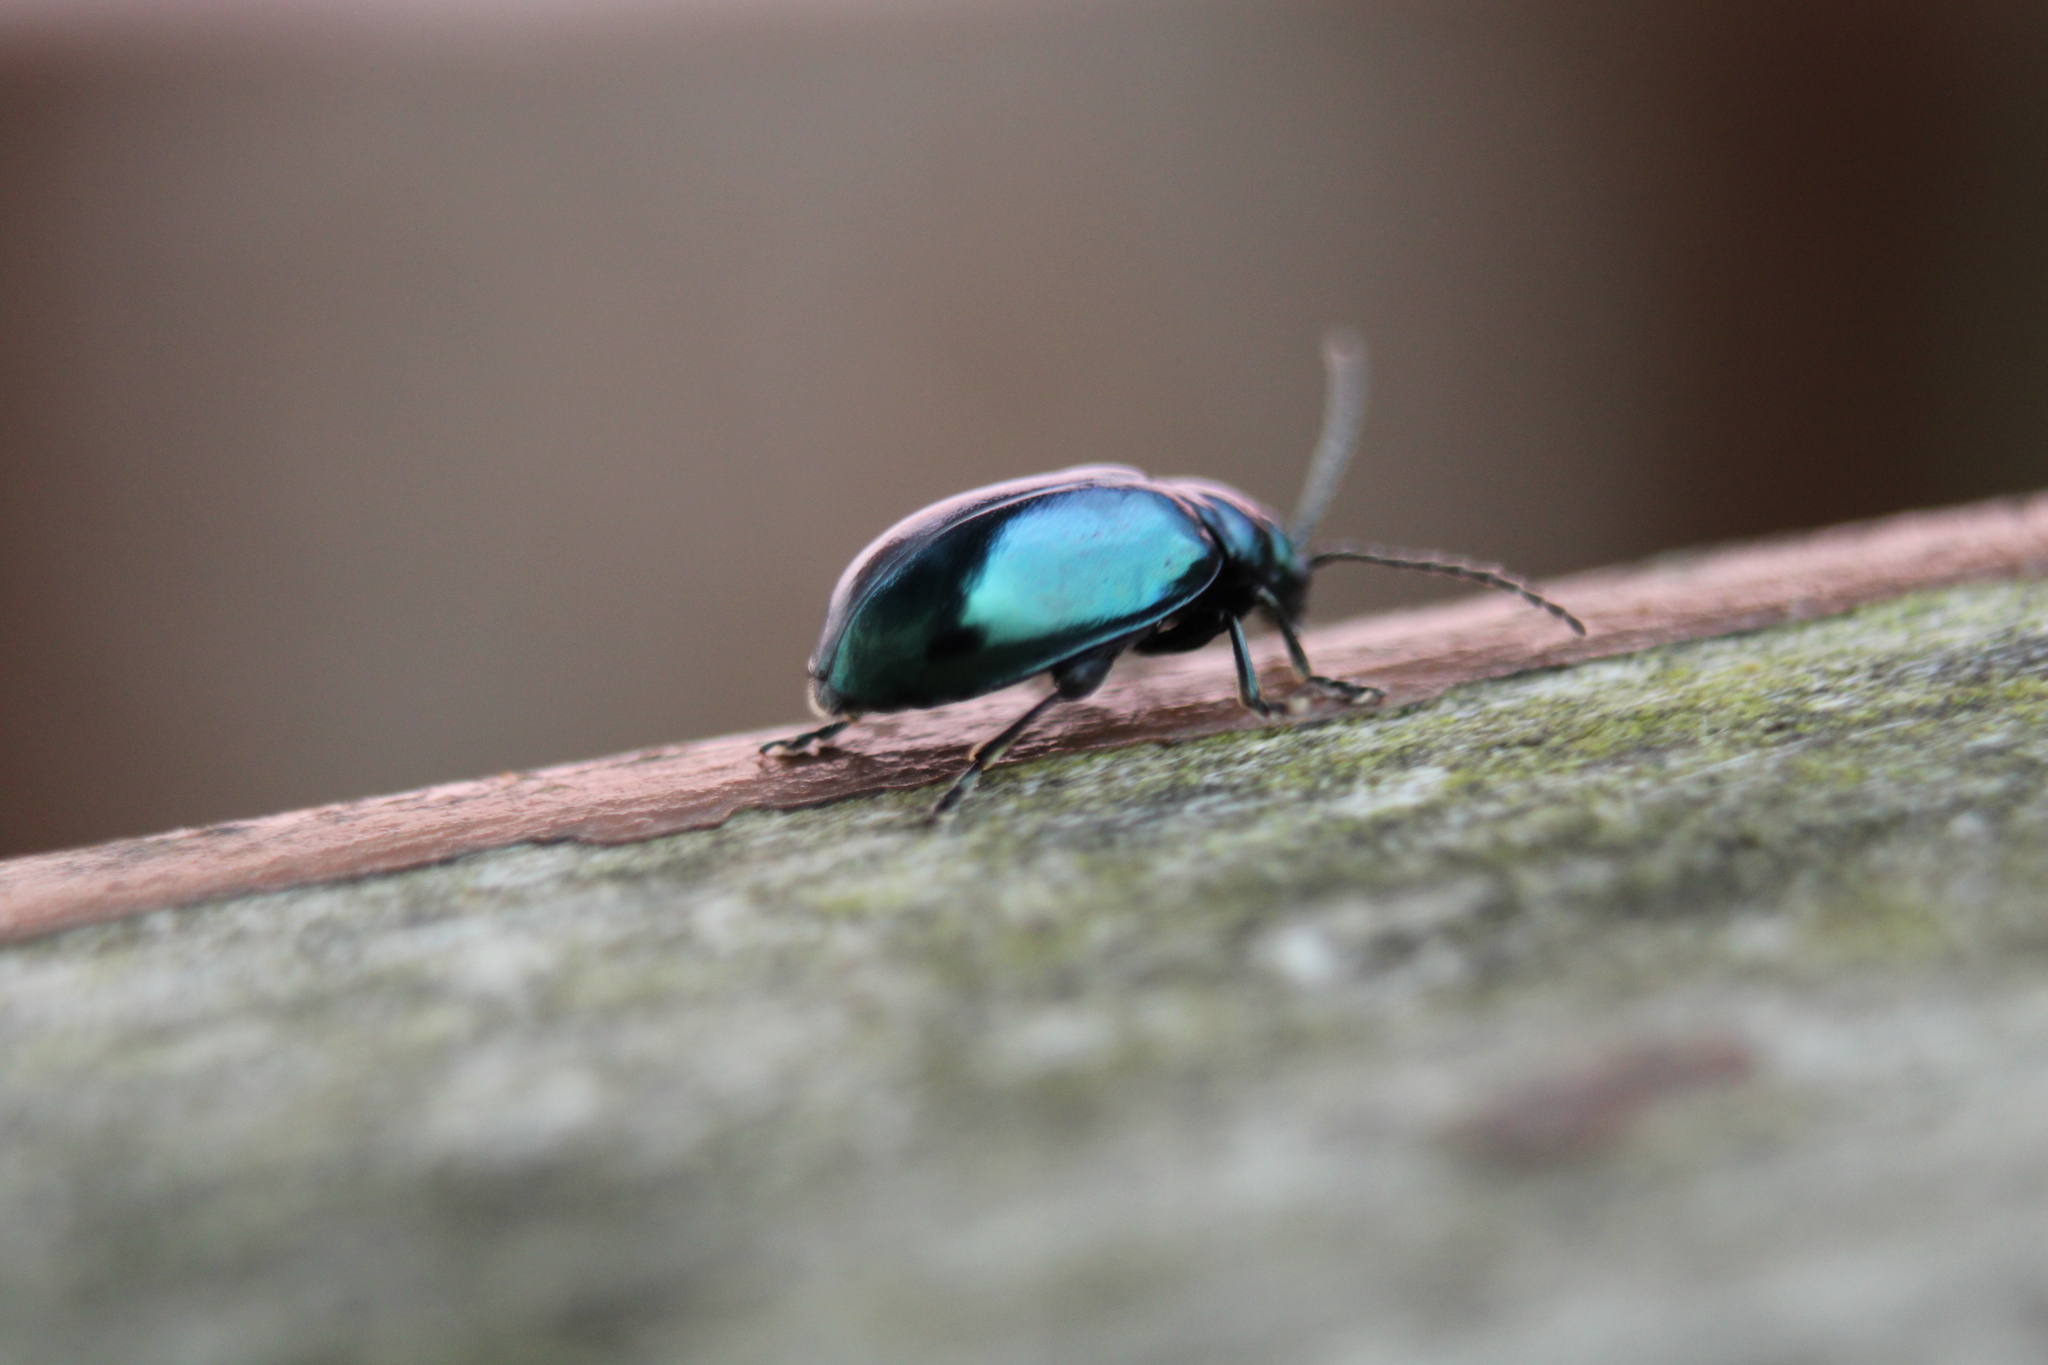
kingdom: Animalia
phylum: Arthropoda
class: Insecta
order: Coleoptera
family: Chrysomelidae
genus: Altica
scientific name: Altica chalybea
